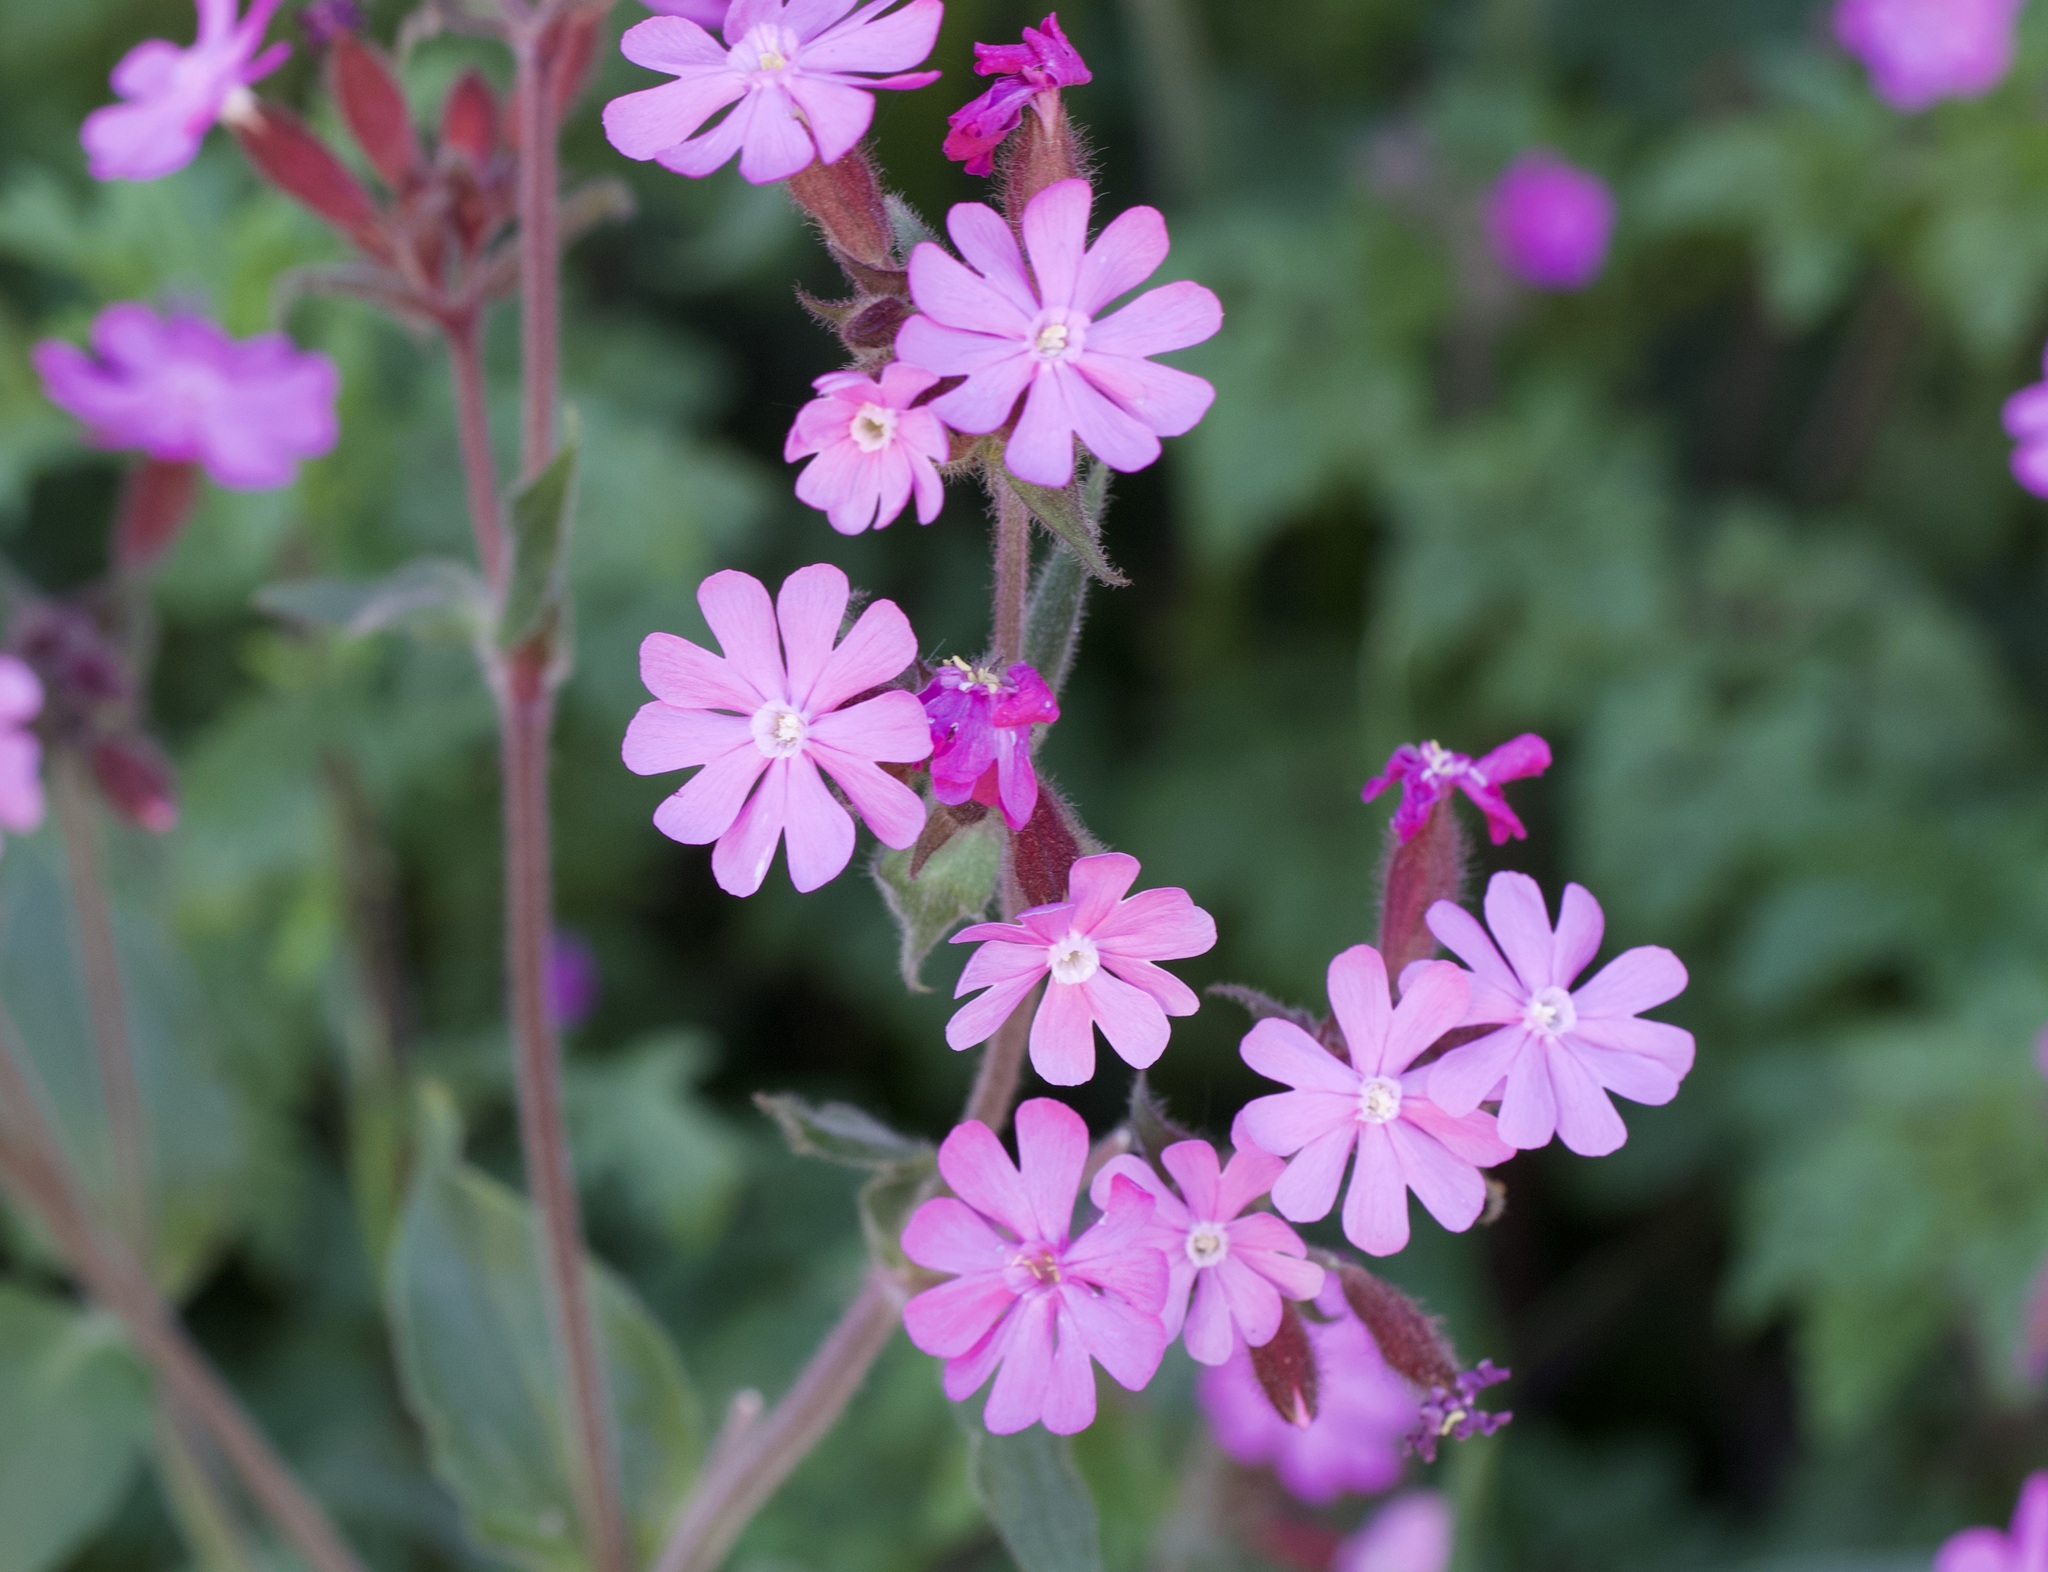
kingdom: Plantae
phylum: Tracheophyta
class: Magnoliopsida
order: Caryophyllales
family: Caryophyllaceae
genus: Silene
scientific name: Silene dioica
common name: Red campion
